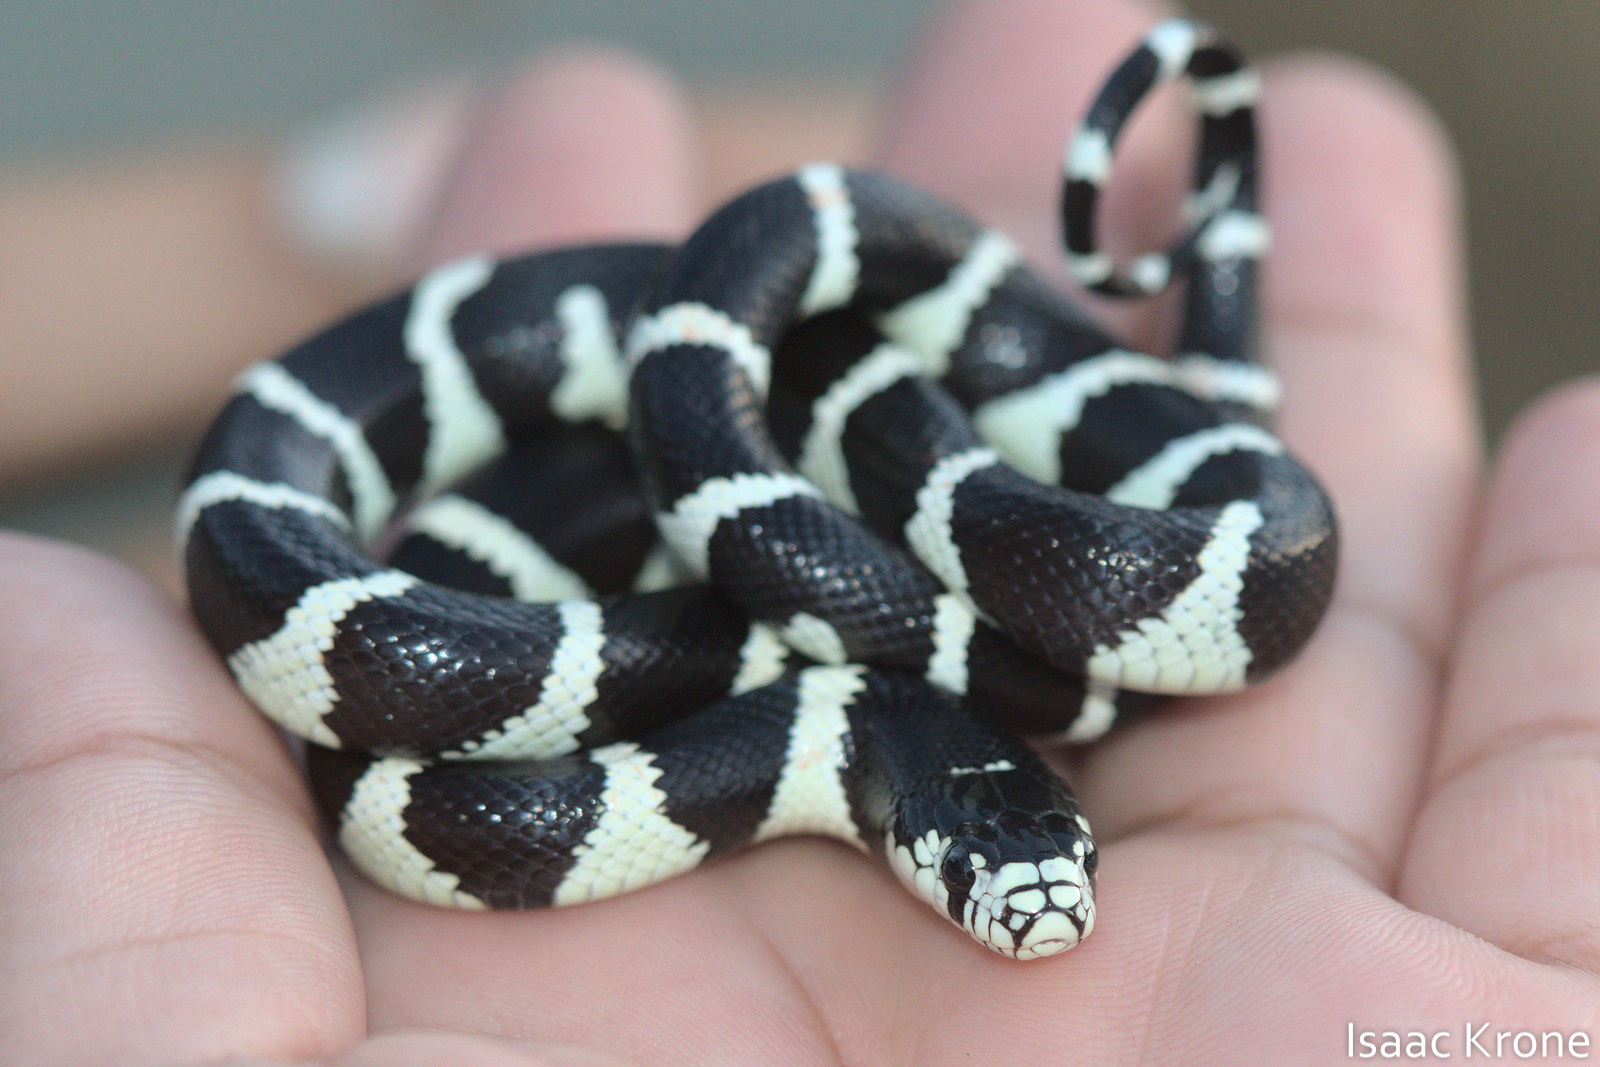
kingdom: Animalia
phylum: Chordata
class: Squamata
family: Colubridae
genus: Lampropeltis
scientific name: Lampropeltis californiae
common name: California kingsnake
